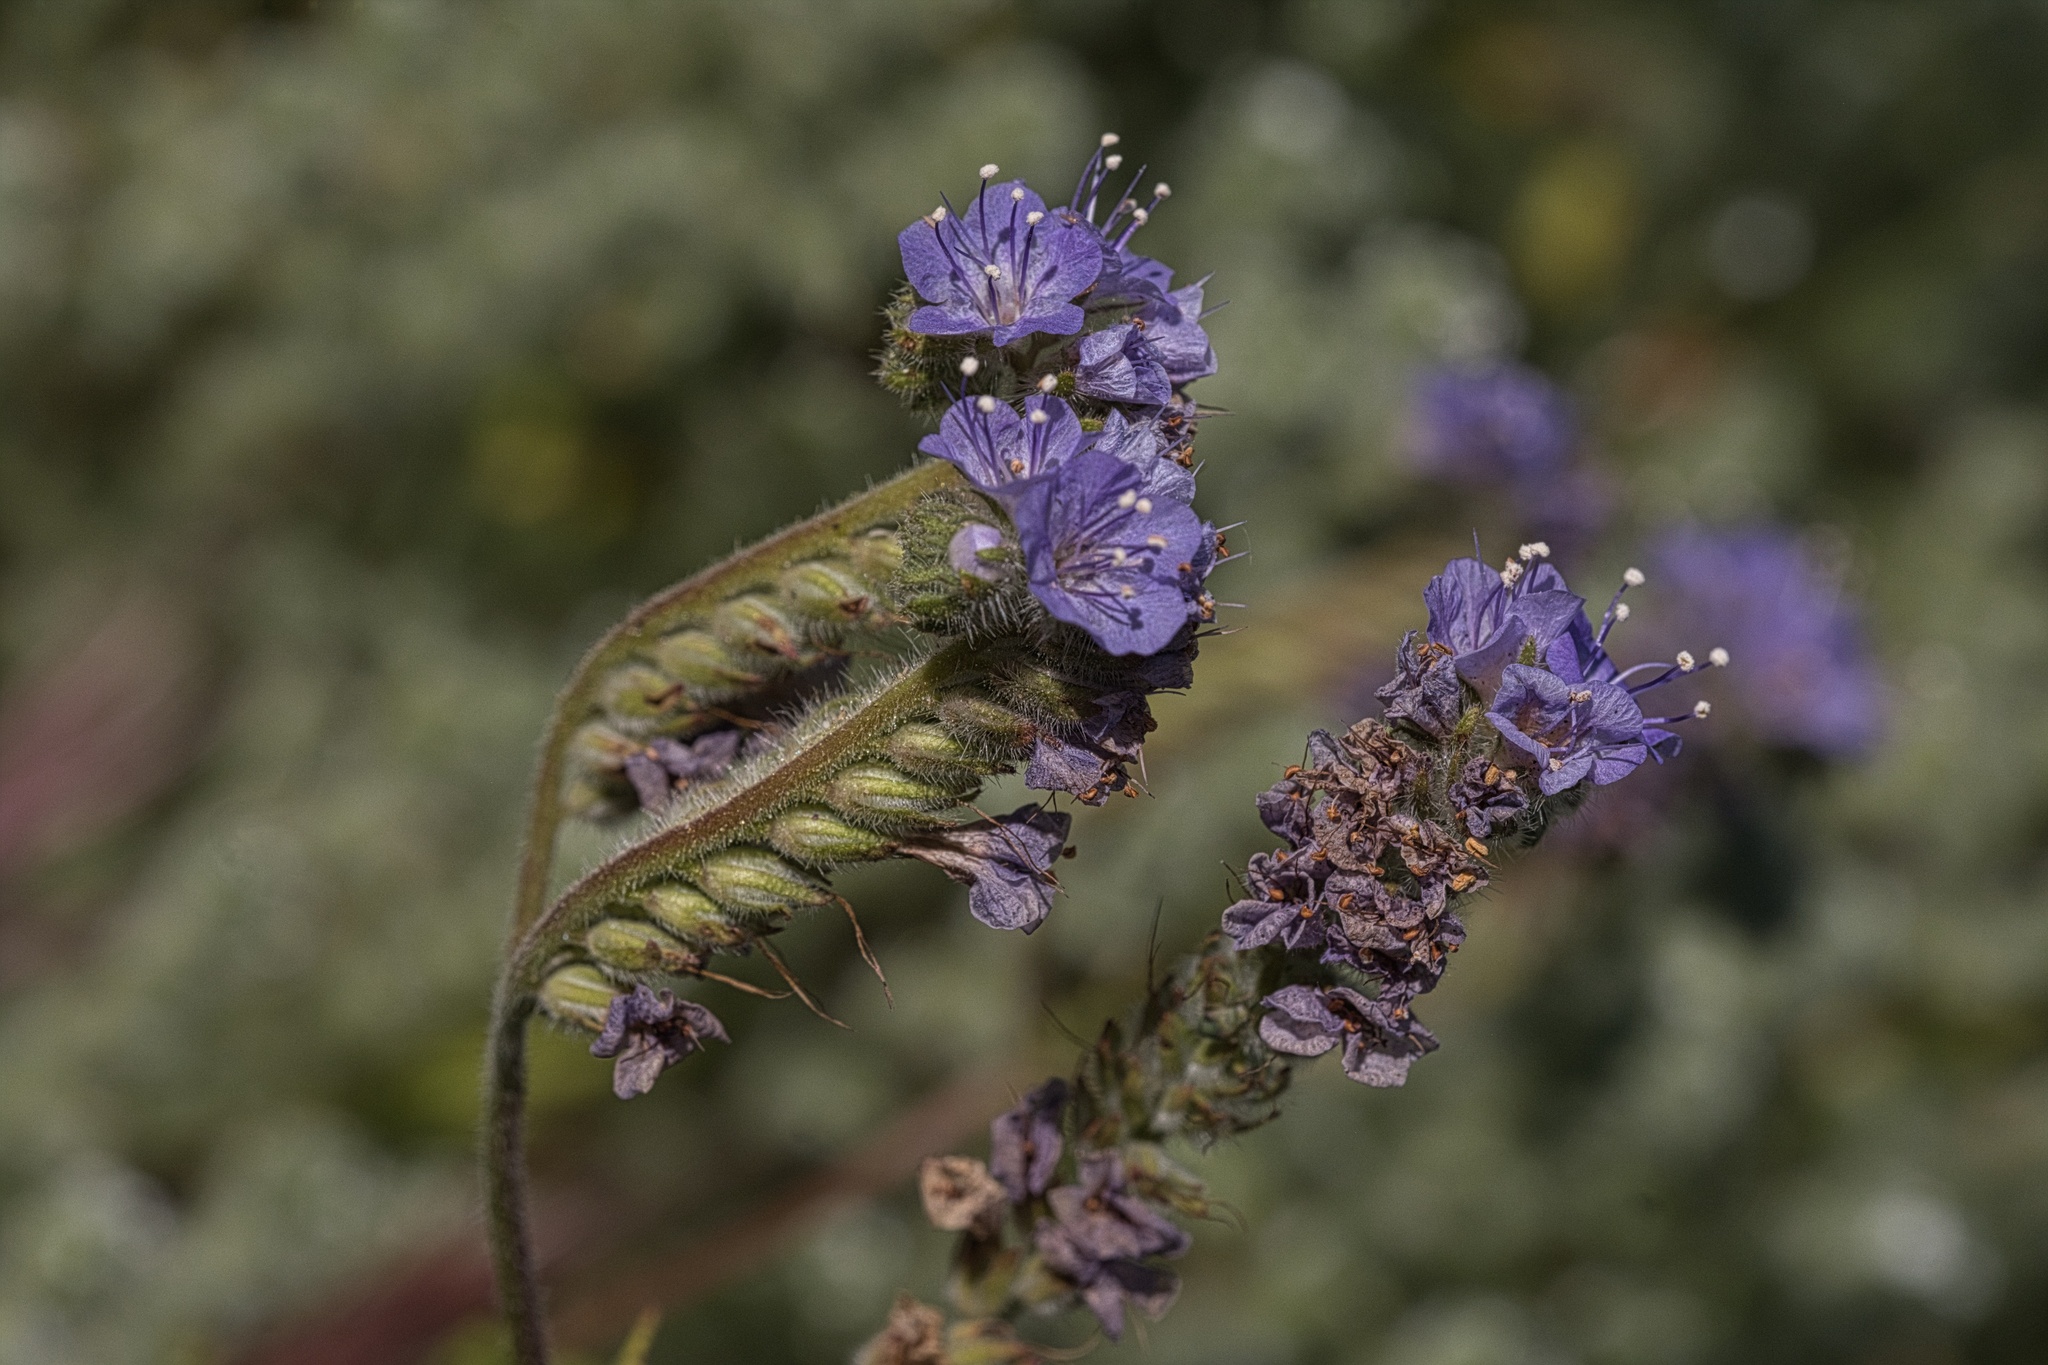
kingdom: Plantae
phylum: Tracheophyta
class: Magnoliopsida
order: Boraginales
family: Hydrophyllaceae
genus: Phacelia
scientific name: Phacelia distans
